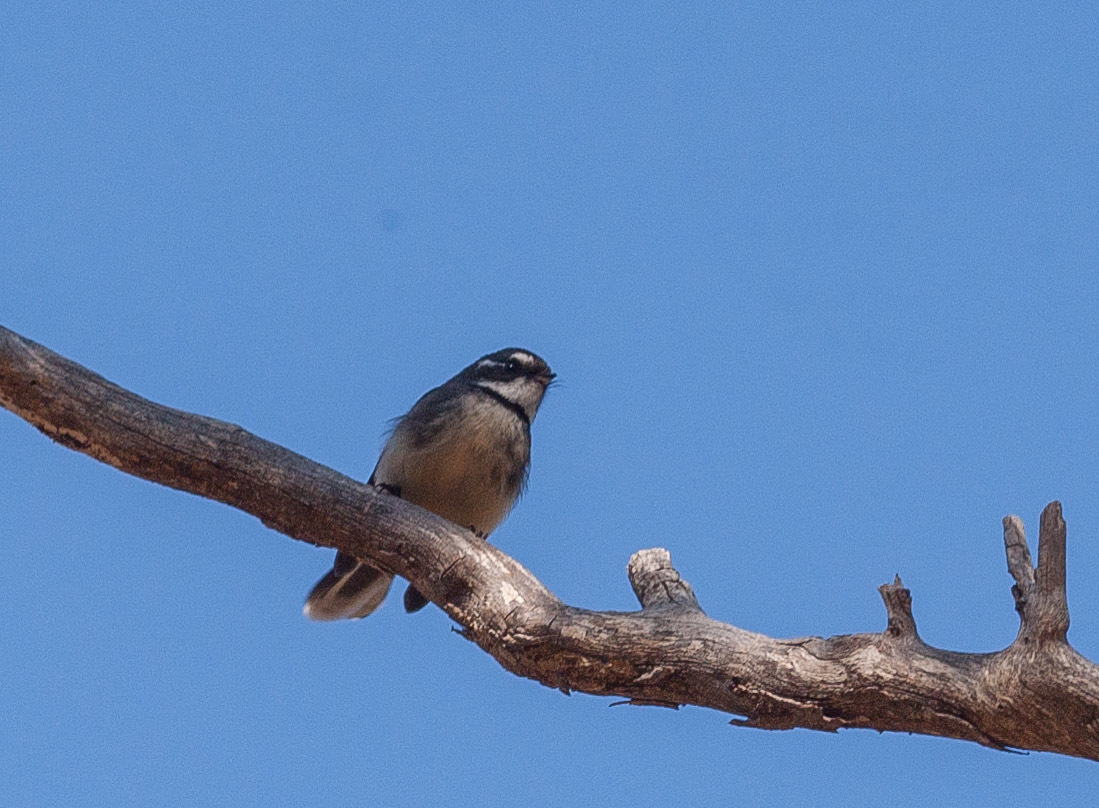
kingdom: Animalia
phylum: Chordata
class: Aves
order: Passeriformes
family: Rhipiduridae
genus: Rhipidura
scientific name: Rhipidura albiscapa
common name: Grey fantail
